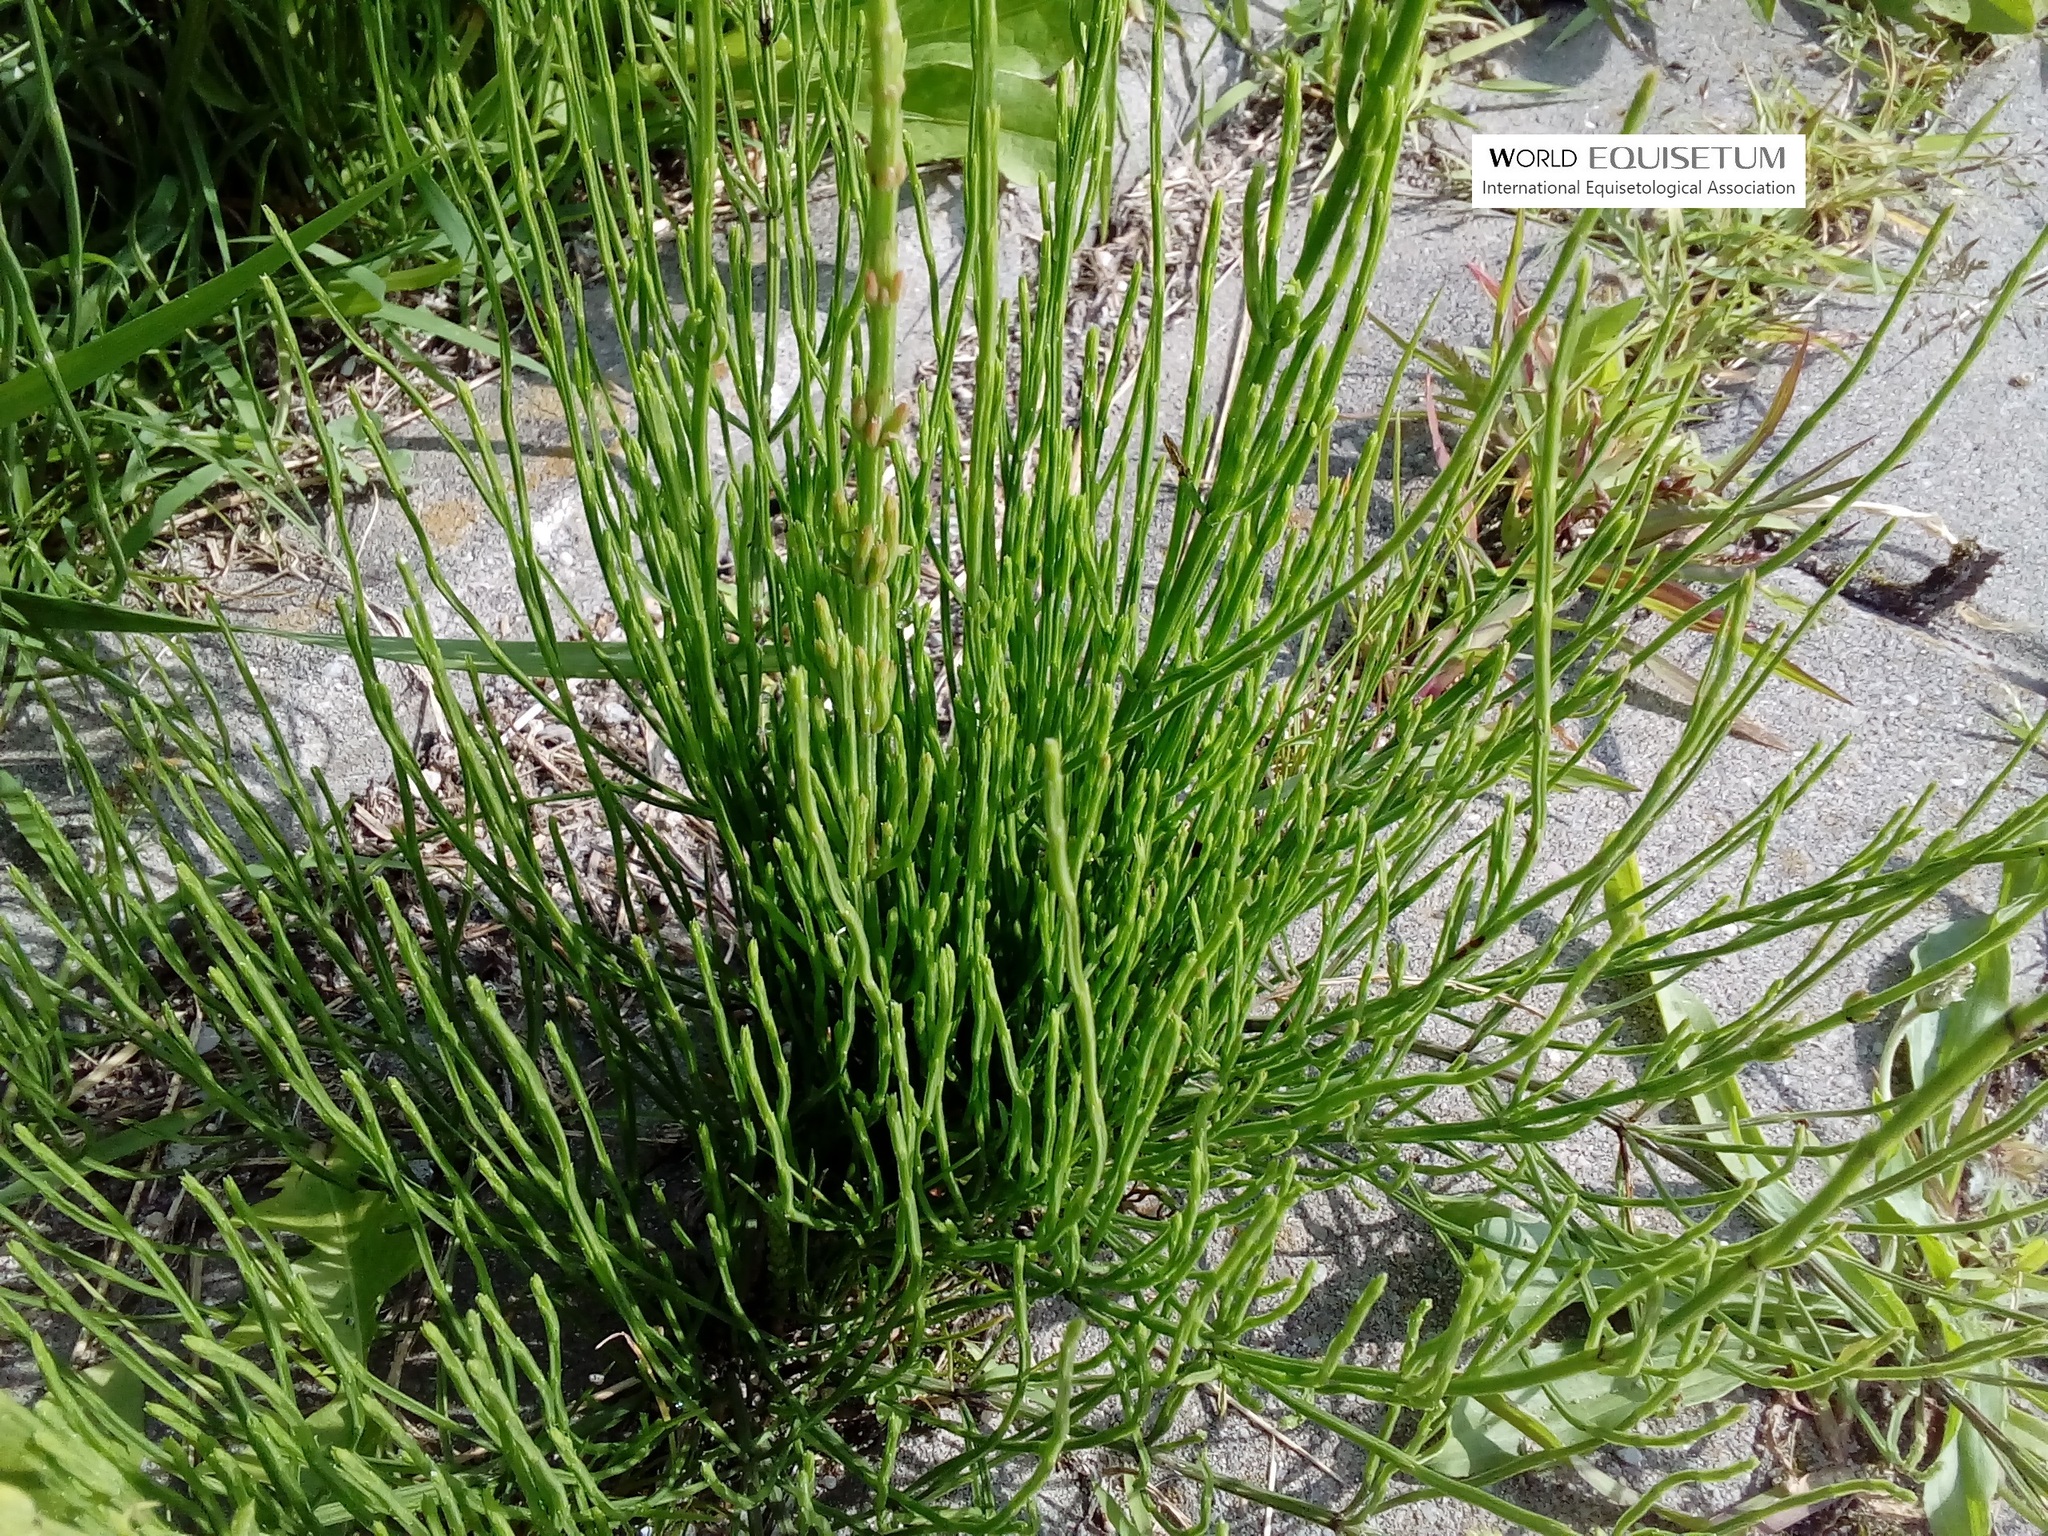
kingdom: Plantae
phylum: Tracheophyta
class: Polypodiopsida
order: Equisetales
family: Equisetaceae
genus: Equisetum
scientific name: Equisetum arvense
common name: Field horsetail
